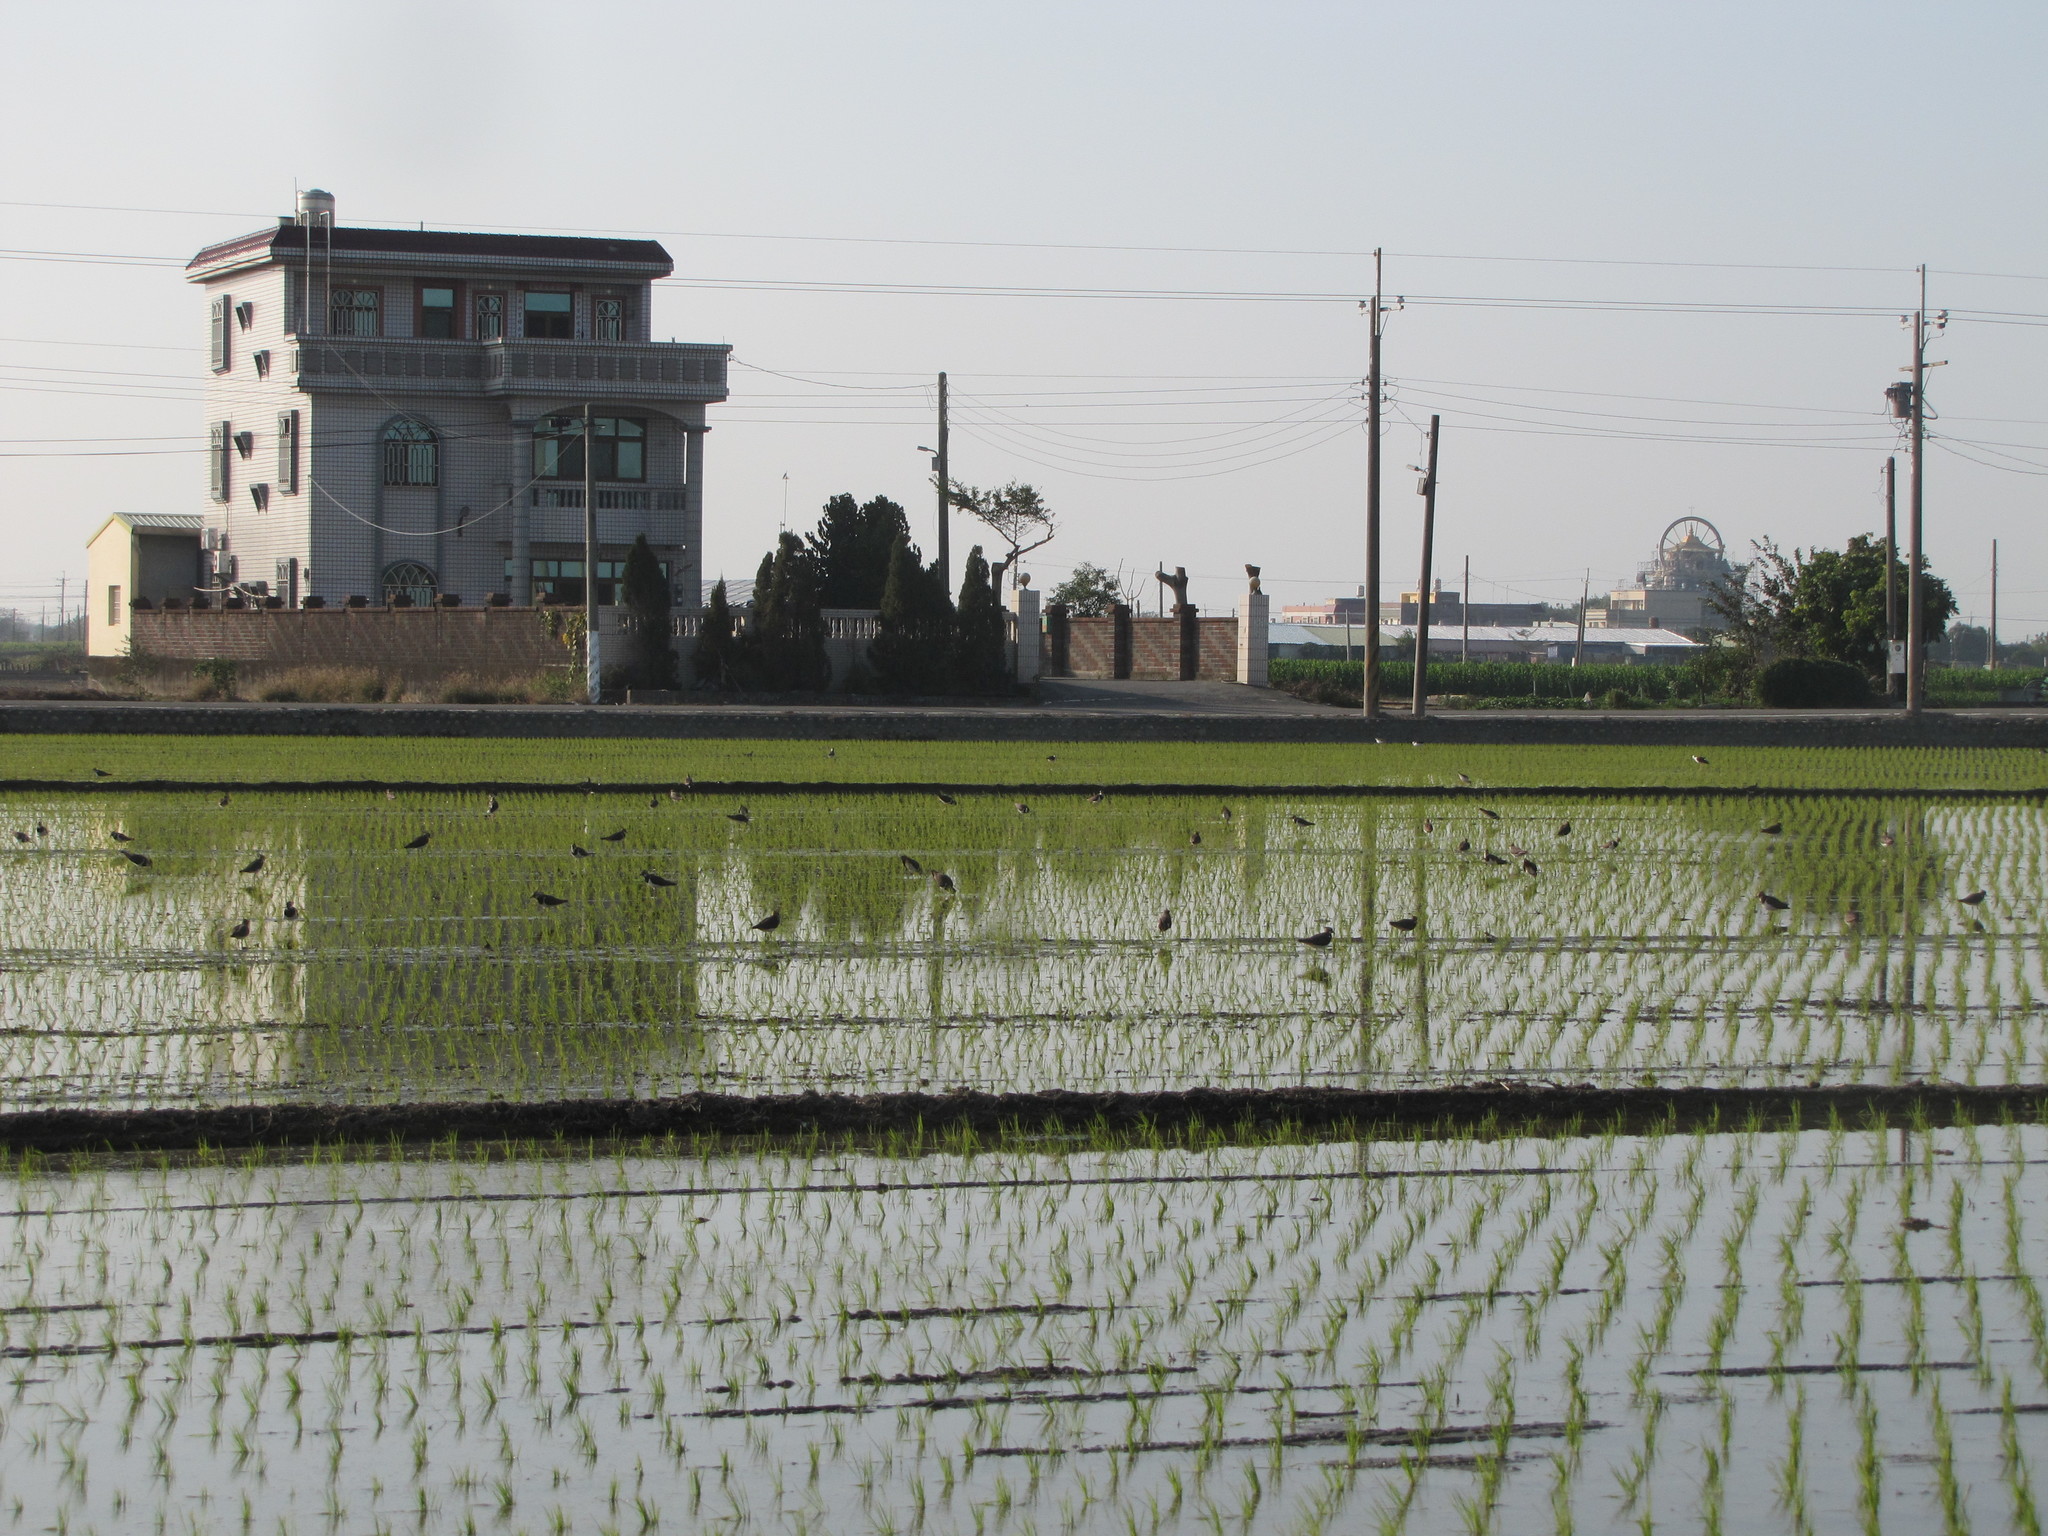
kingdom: Animalia
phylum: Chordata
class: Aves
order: Charadriiformes
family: Charadriidae
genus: Vanellus
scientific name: Vanellus vanellus
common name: Northern lapwing
